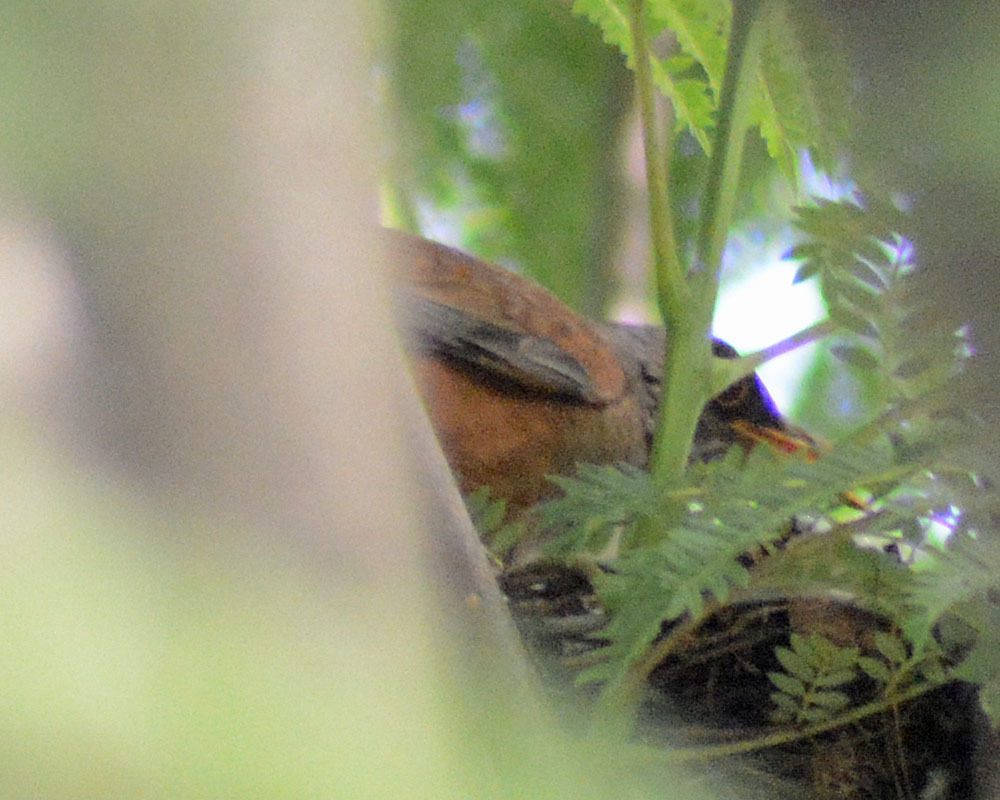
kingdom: Animalia
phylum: Chordata
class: Aves
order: Passeriformes
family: Turdidae
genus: Turdus
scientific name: Turdus rufopalliatus
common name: Rufous-backed robin
